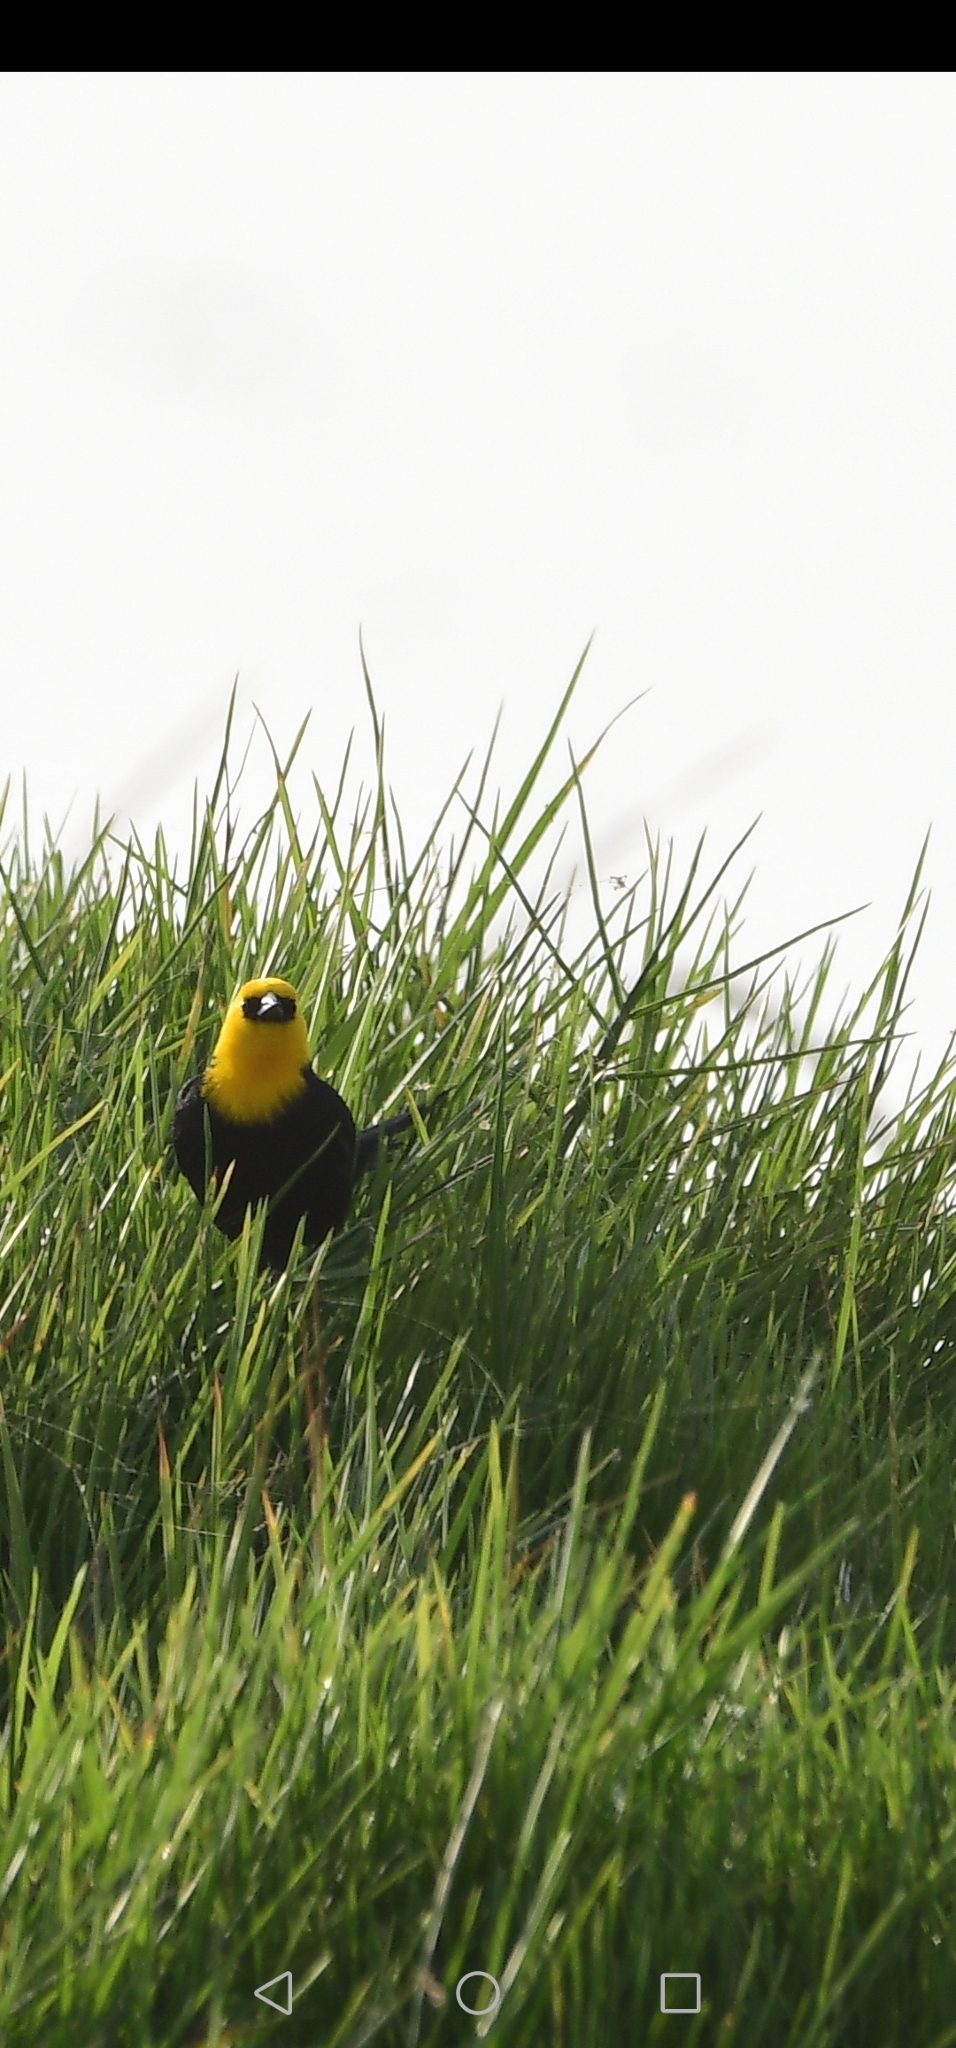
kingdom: Animalia
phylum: Chordata
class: Aves
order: Passeriformes
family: Icteridae
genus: Chrysomus
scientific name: Chrysomus icterocephalus
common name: Yellow-hooded blackbird
